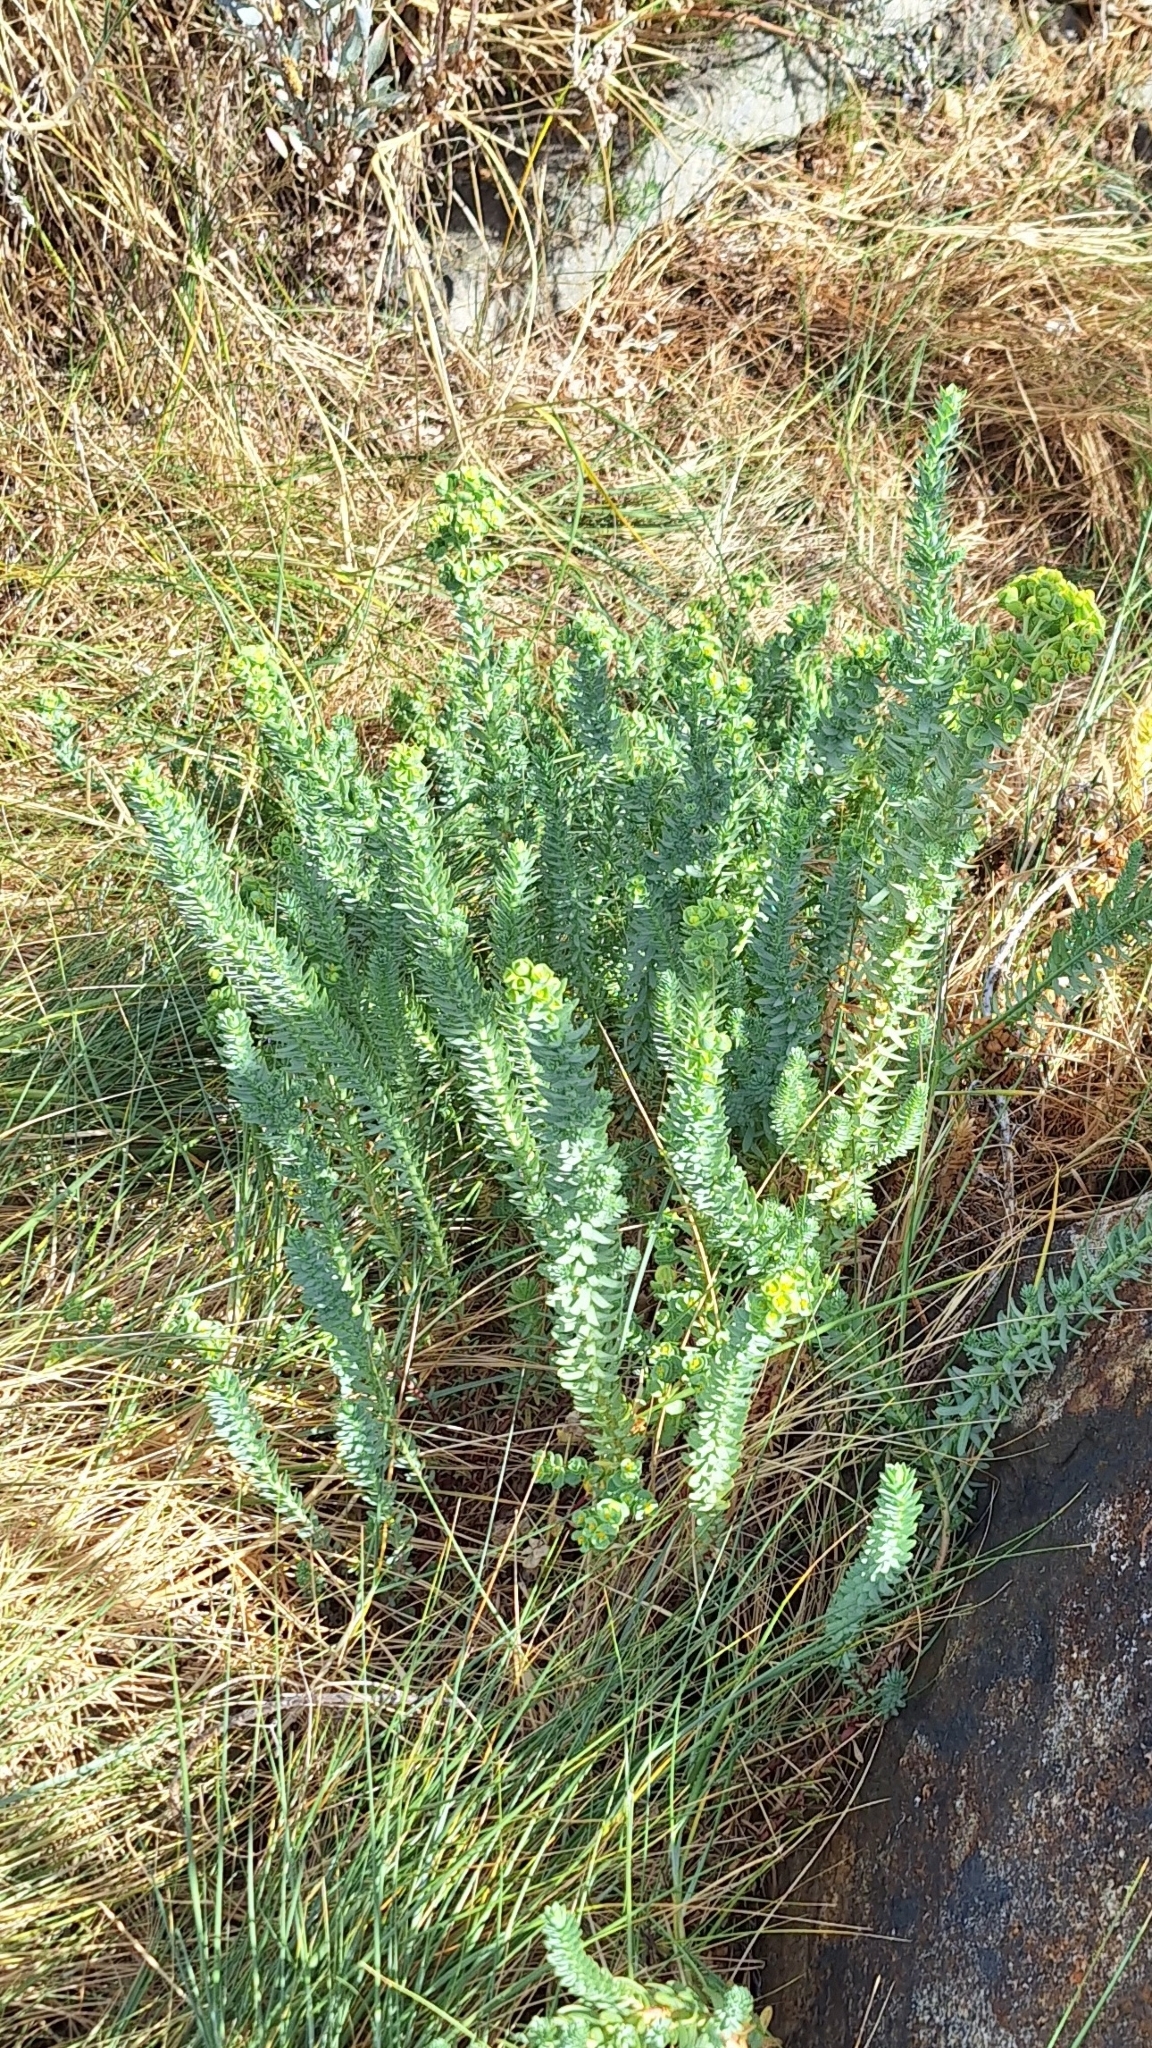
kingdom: Plantae
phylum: Tracheophyta
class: Magnoliopsida
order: Malpighiales
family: Euphorbiaceae
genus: Euphorbia
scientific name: Euphorbia paralias
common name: Sea spurge
